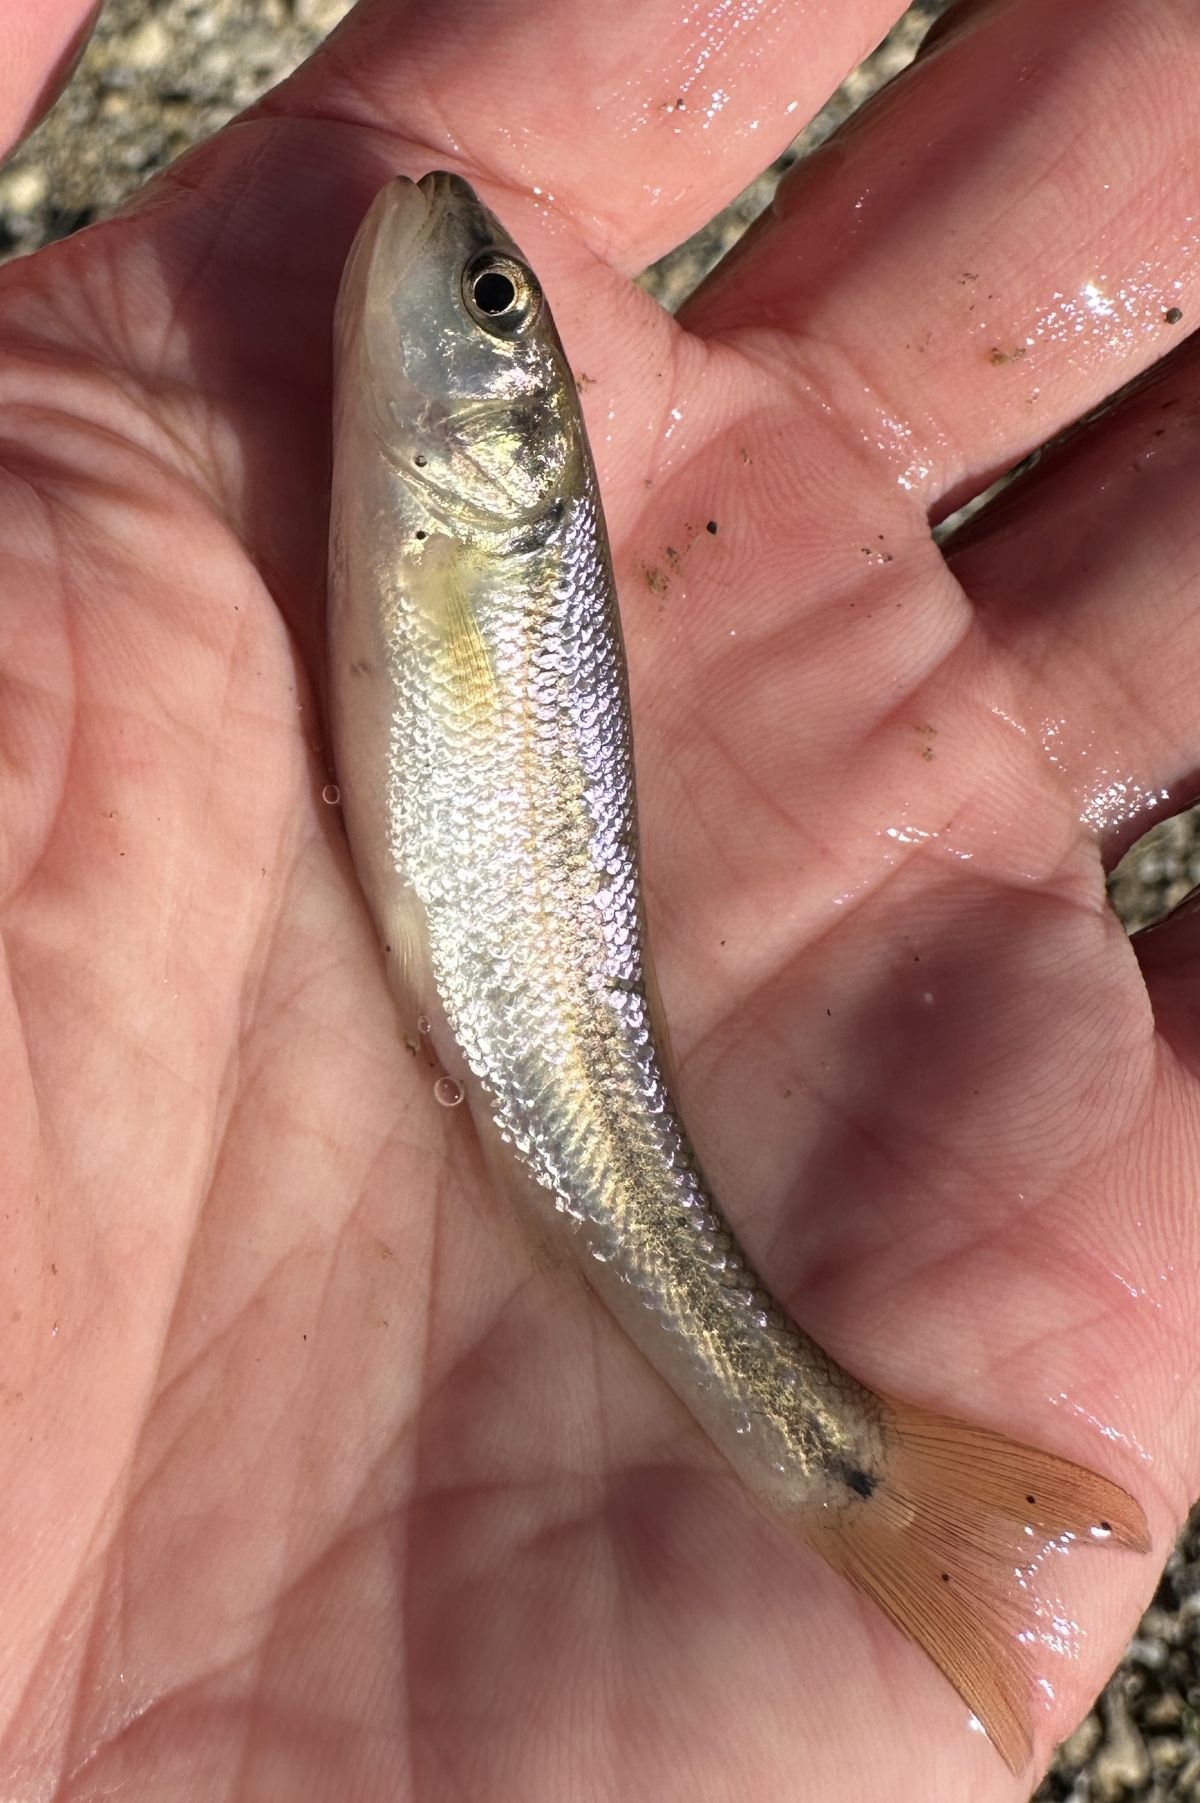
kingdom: Animalia
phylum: Chordata
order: Cypriniformes
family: Cyprinidae
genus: Semotilus
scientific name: Semotilus atromaculatus
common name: Creek chub
